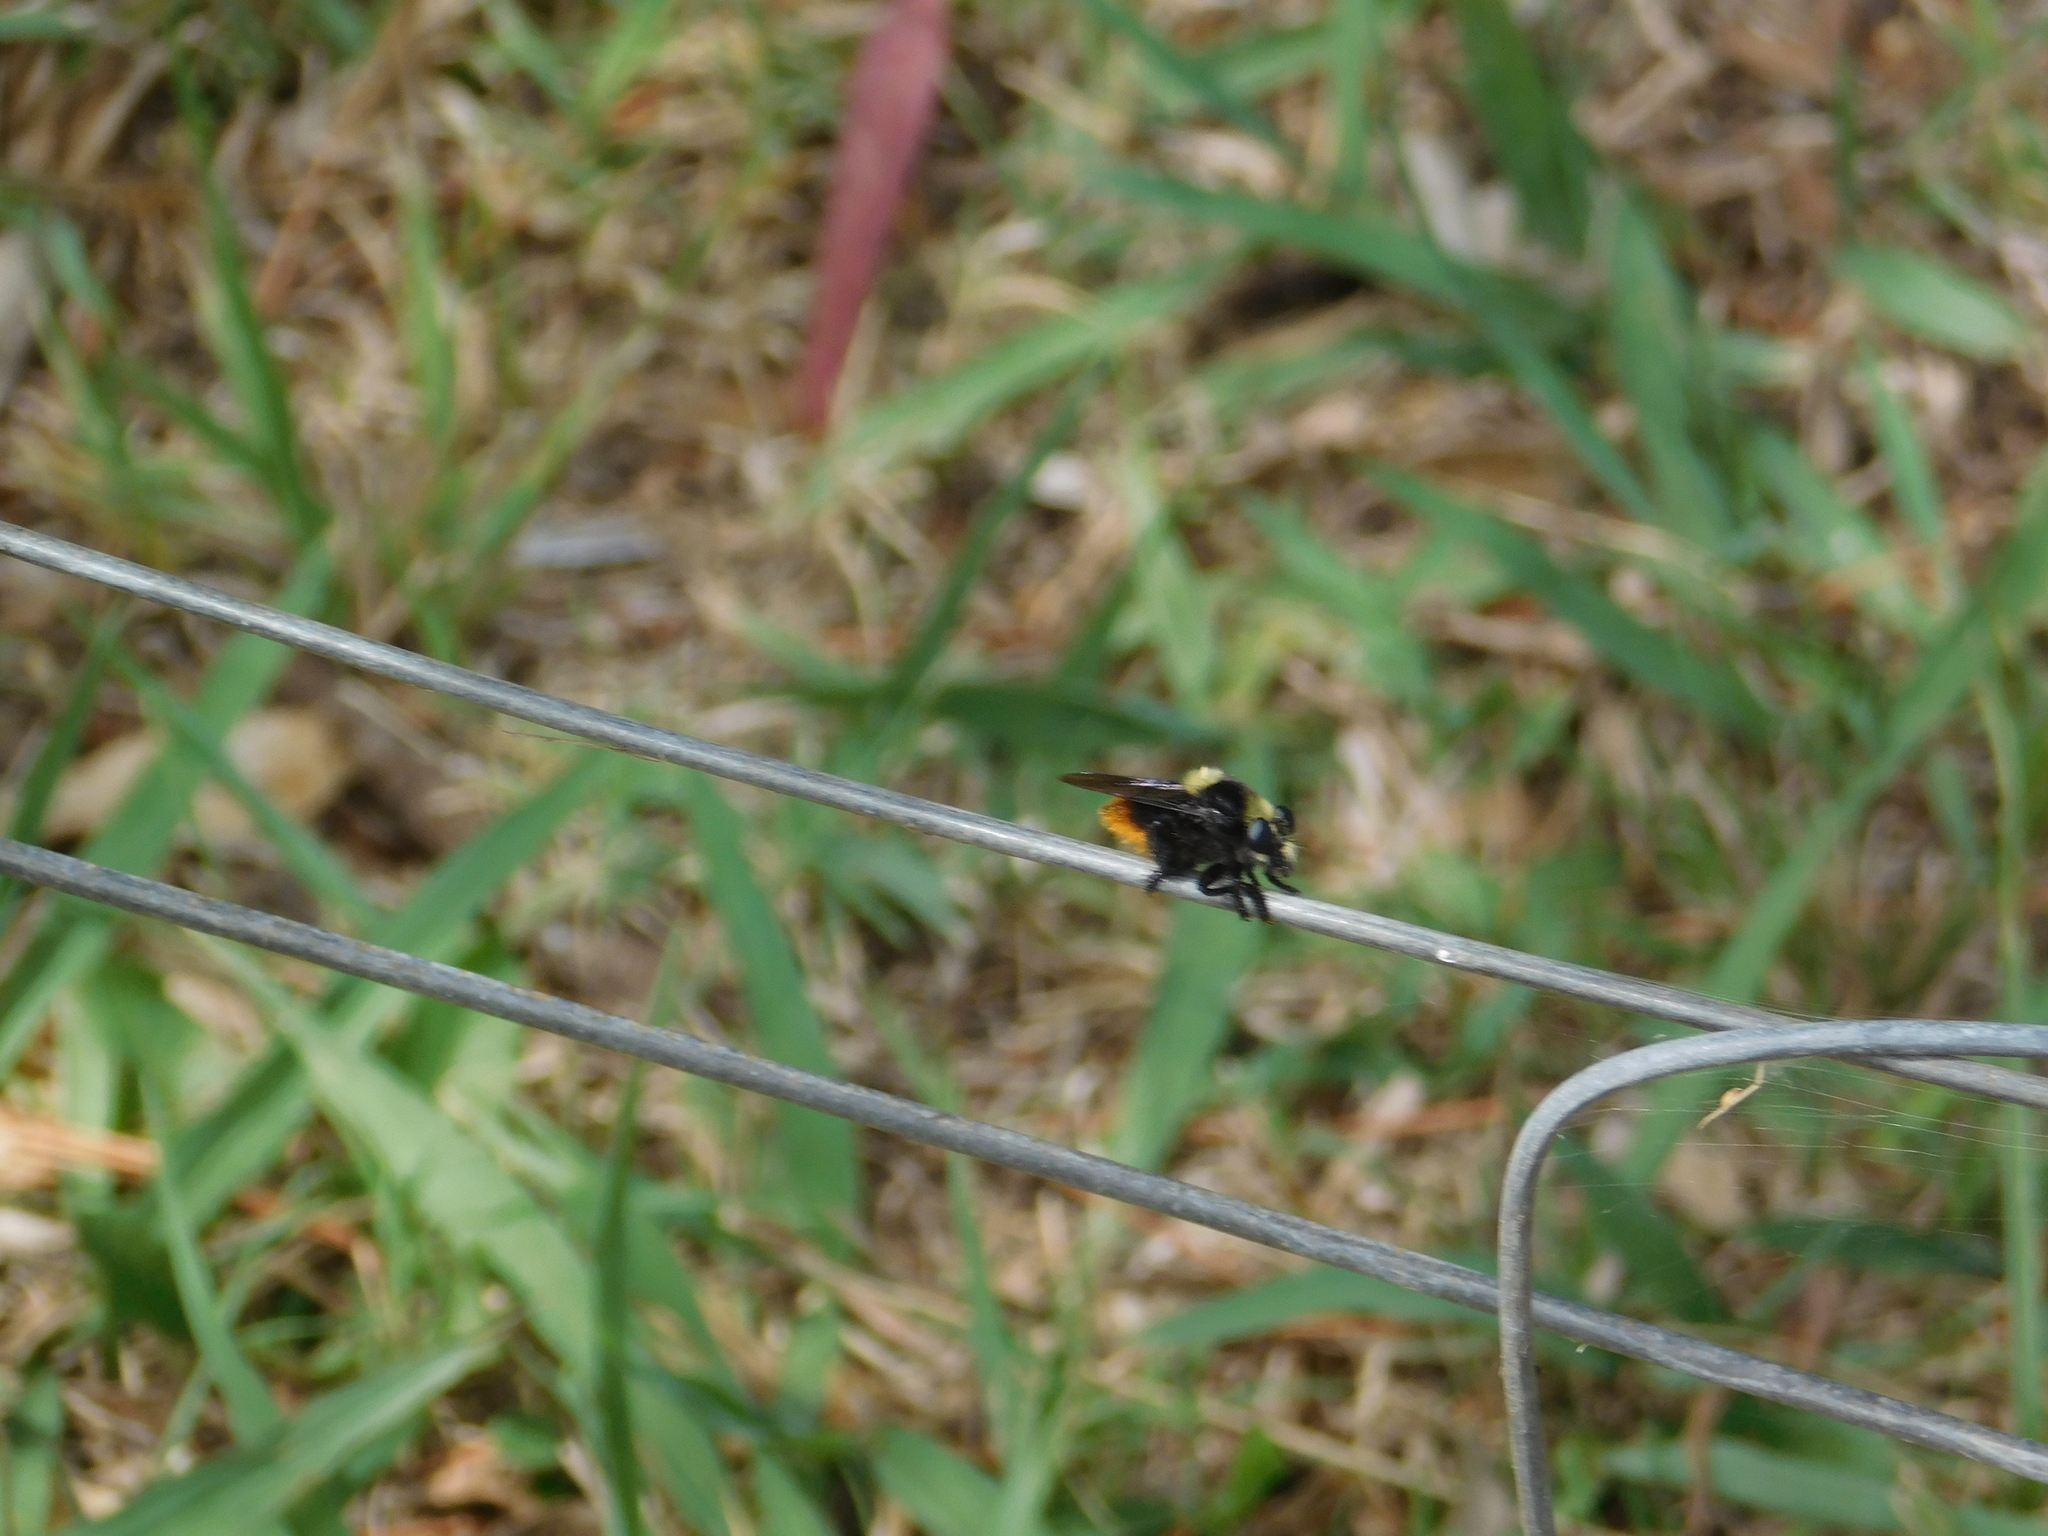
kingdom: Animalia
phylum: Arthropoda
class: Insecta
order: Diptera
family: Asilidae
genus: Mallophora
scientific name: Mallophora ruficauda
